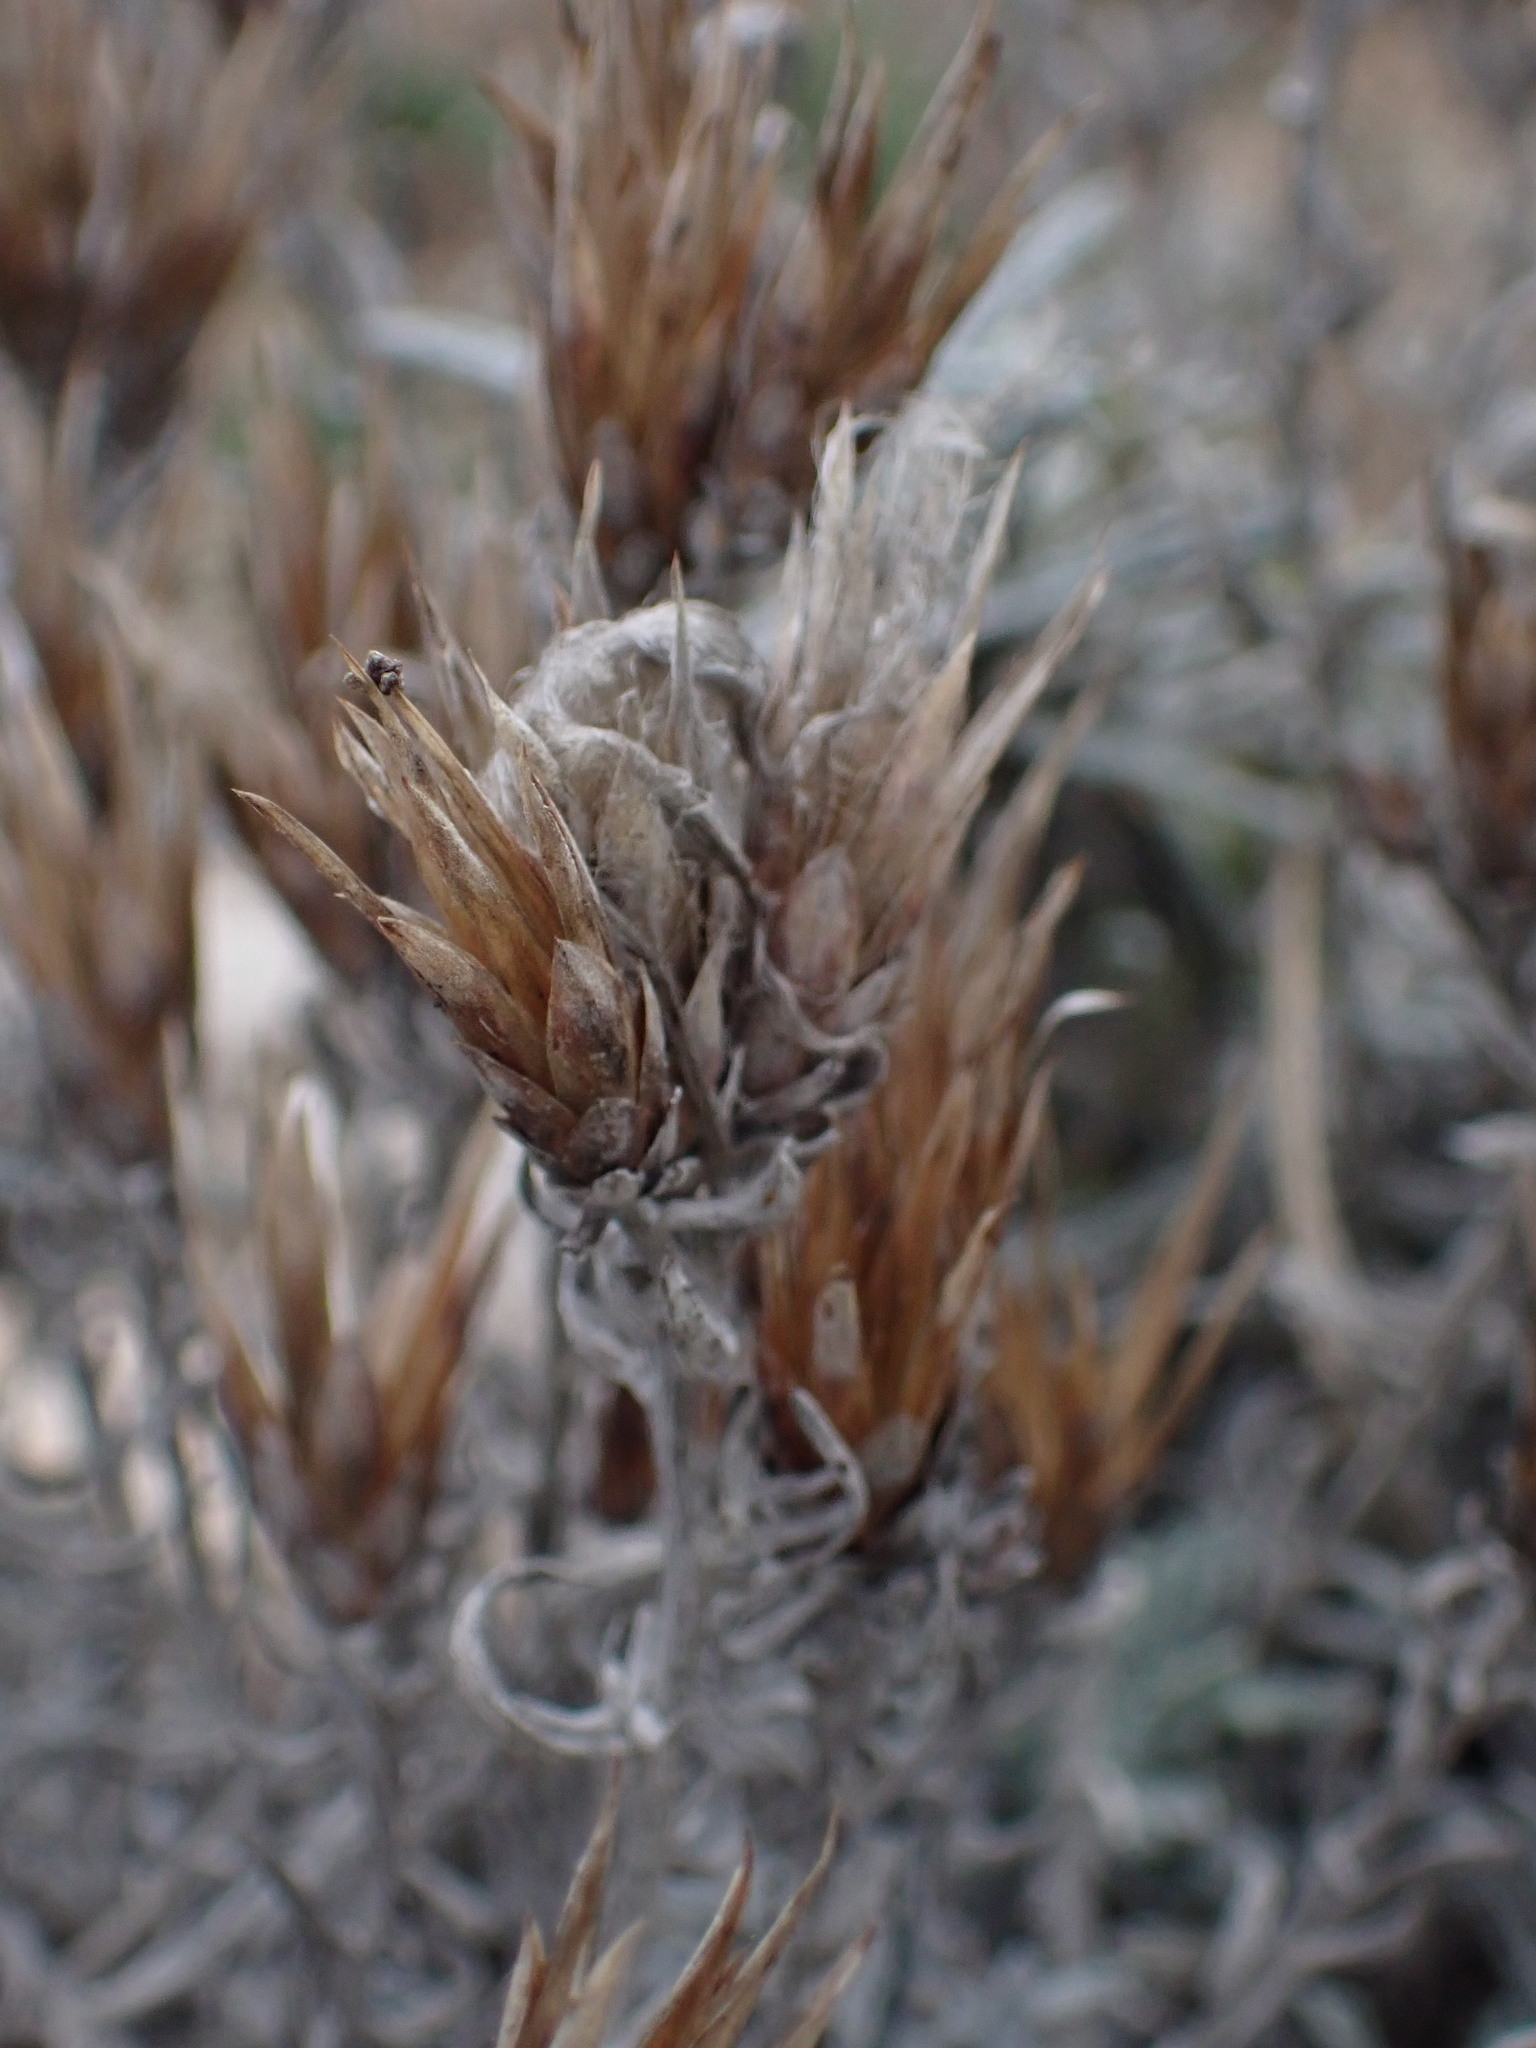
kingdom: Plantae
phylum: Tracheophyta
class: Magnoliopsida
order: Asterales
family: Asteraceae
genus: Staehelina
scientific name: Staehelina dubia
